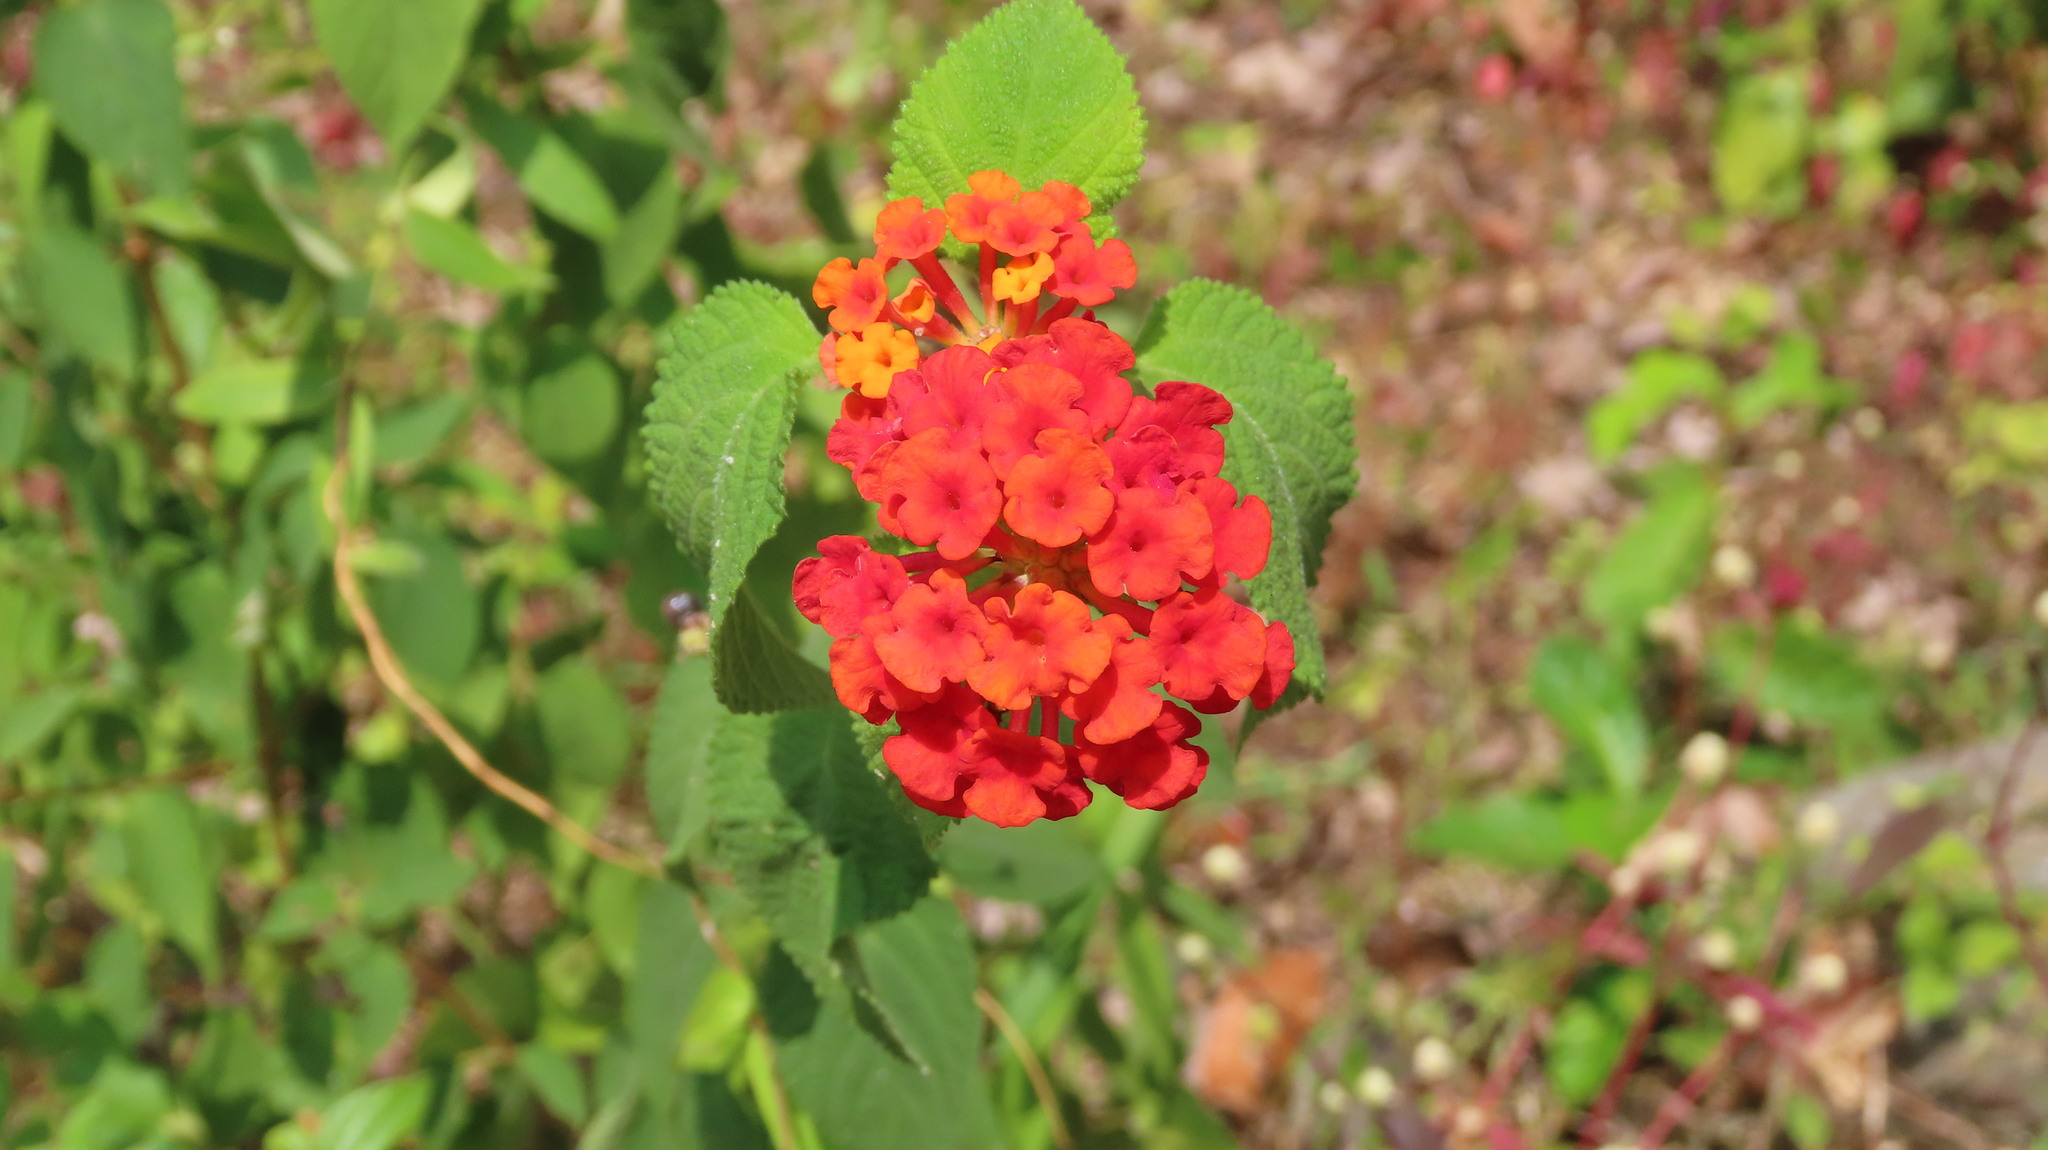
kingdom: Plantae
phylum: Tracheophyta
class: Magnoliopsida
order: Lamiales
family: Verbenaceae
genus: Lantana
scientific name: Lantana camara
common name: Lantana
